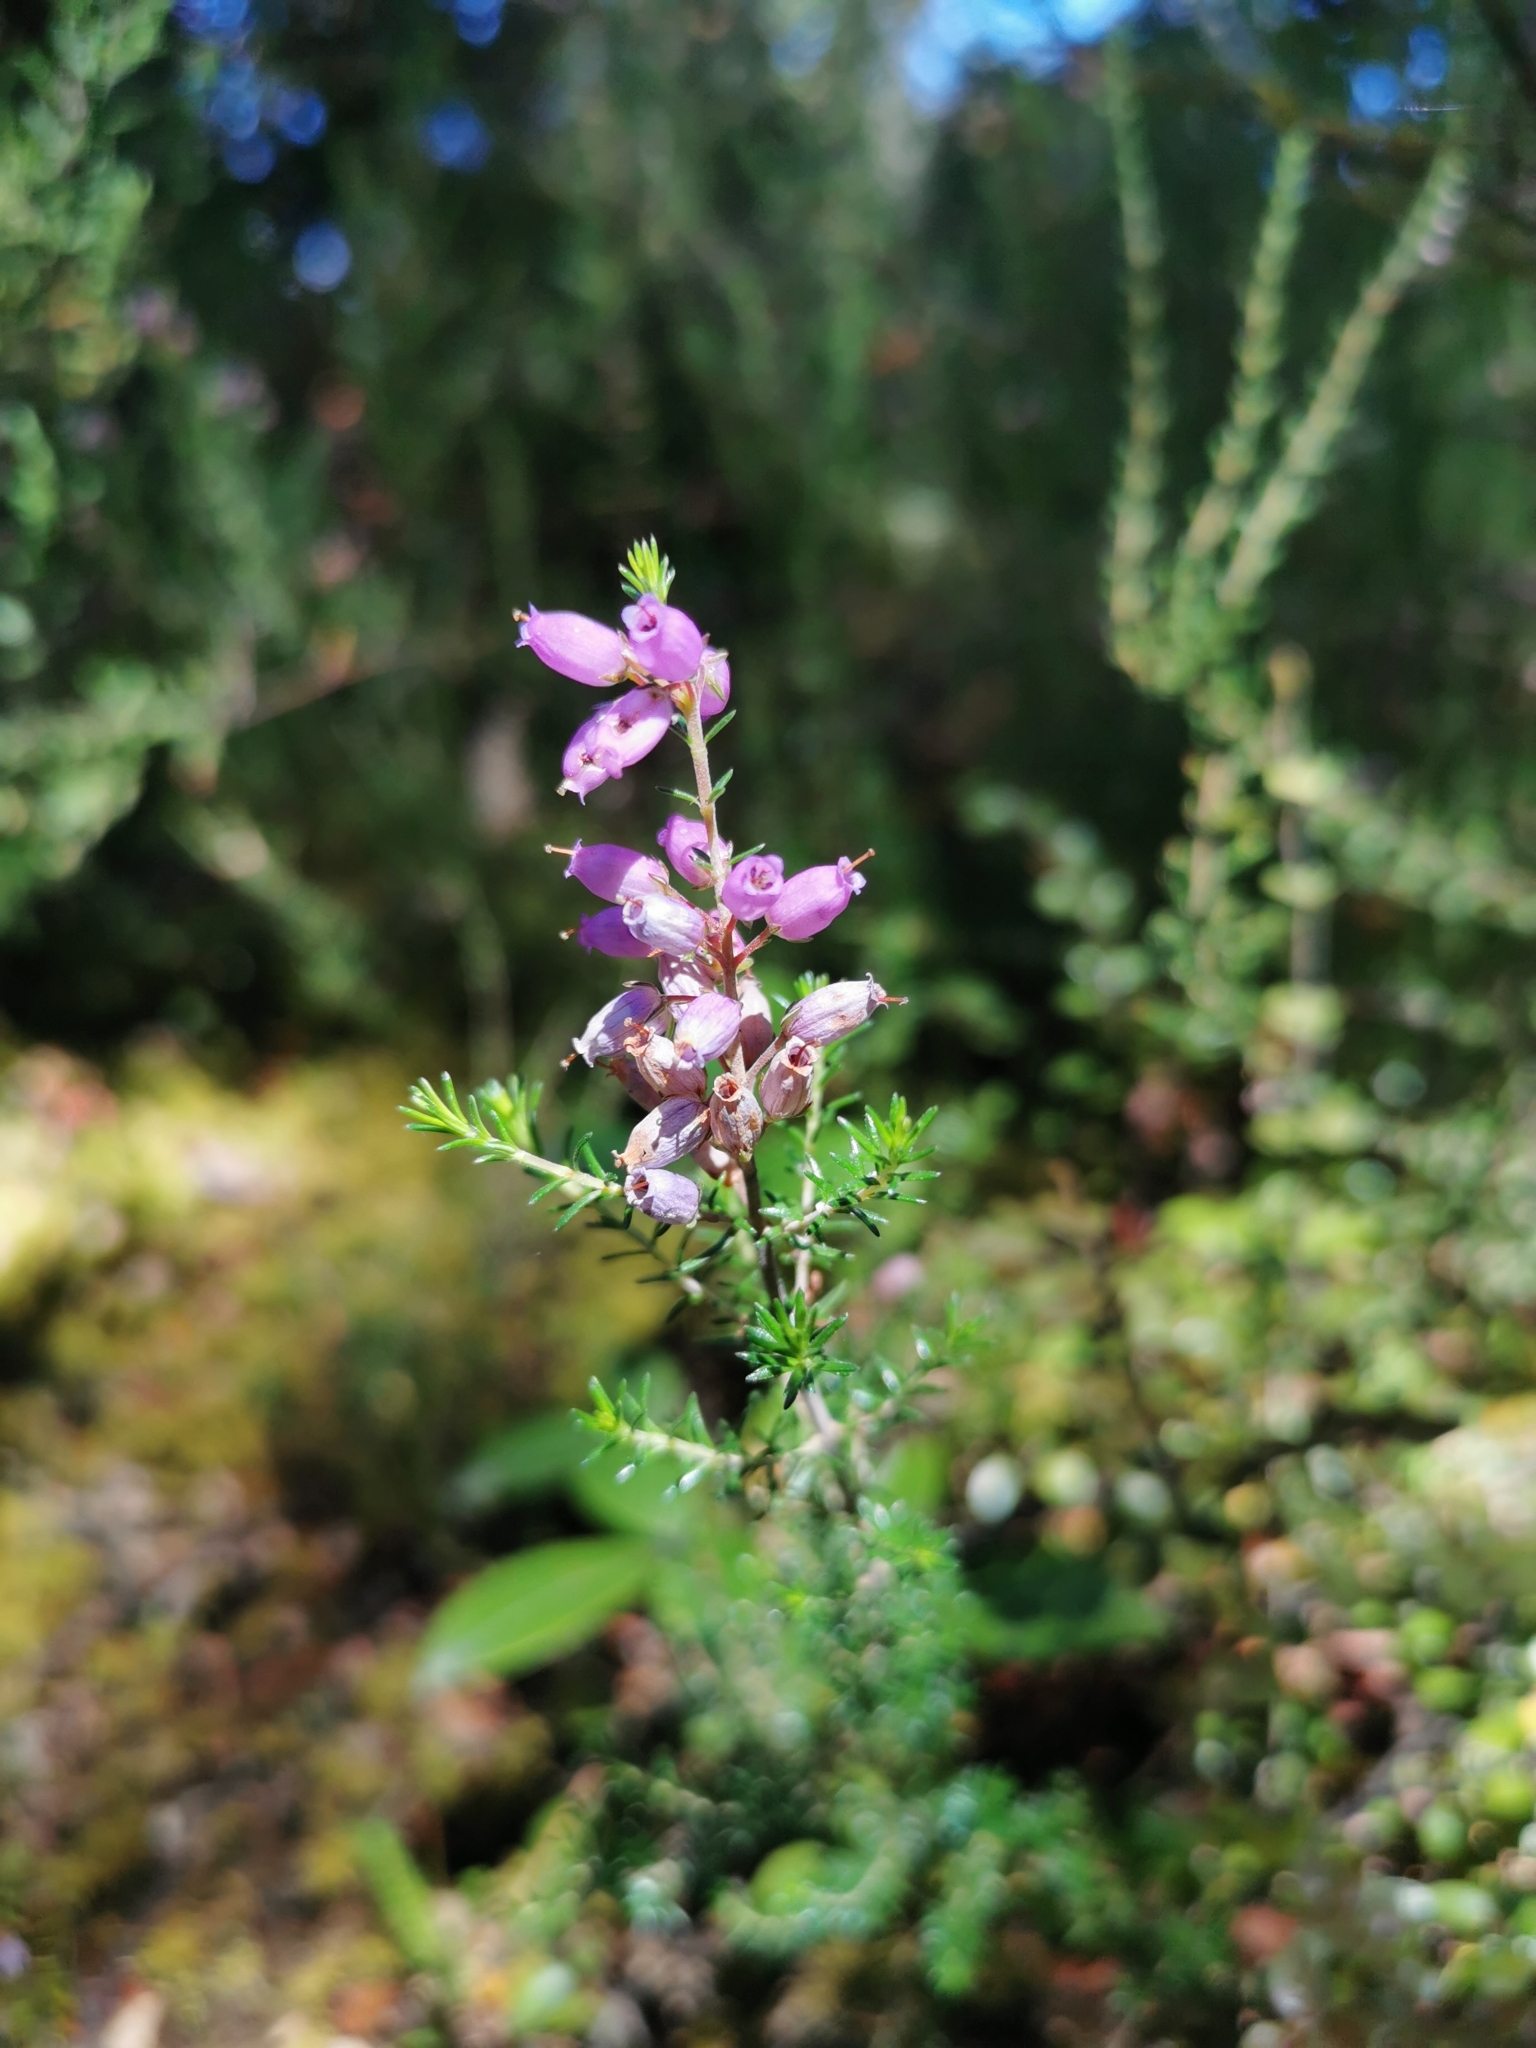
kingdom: Plantae
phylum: Tracheophyta
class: Magnoliopsida
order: Ericales
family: Ericaceae
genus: Calluna
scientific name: Calluna vulgaris
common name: Heather
